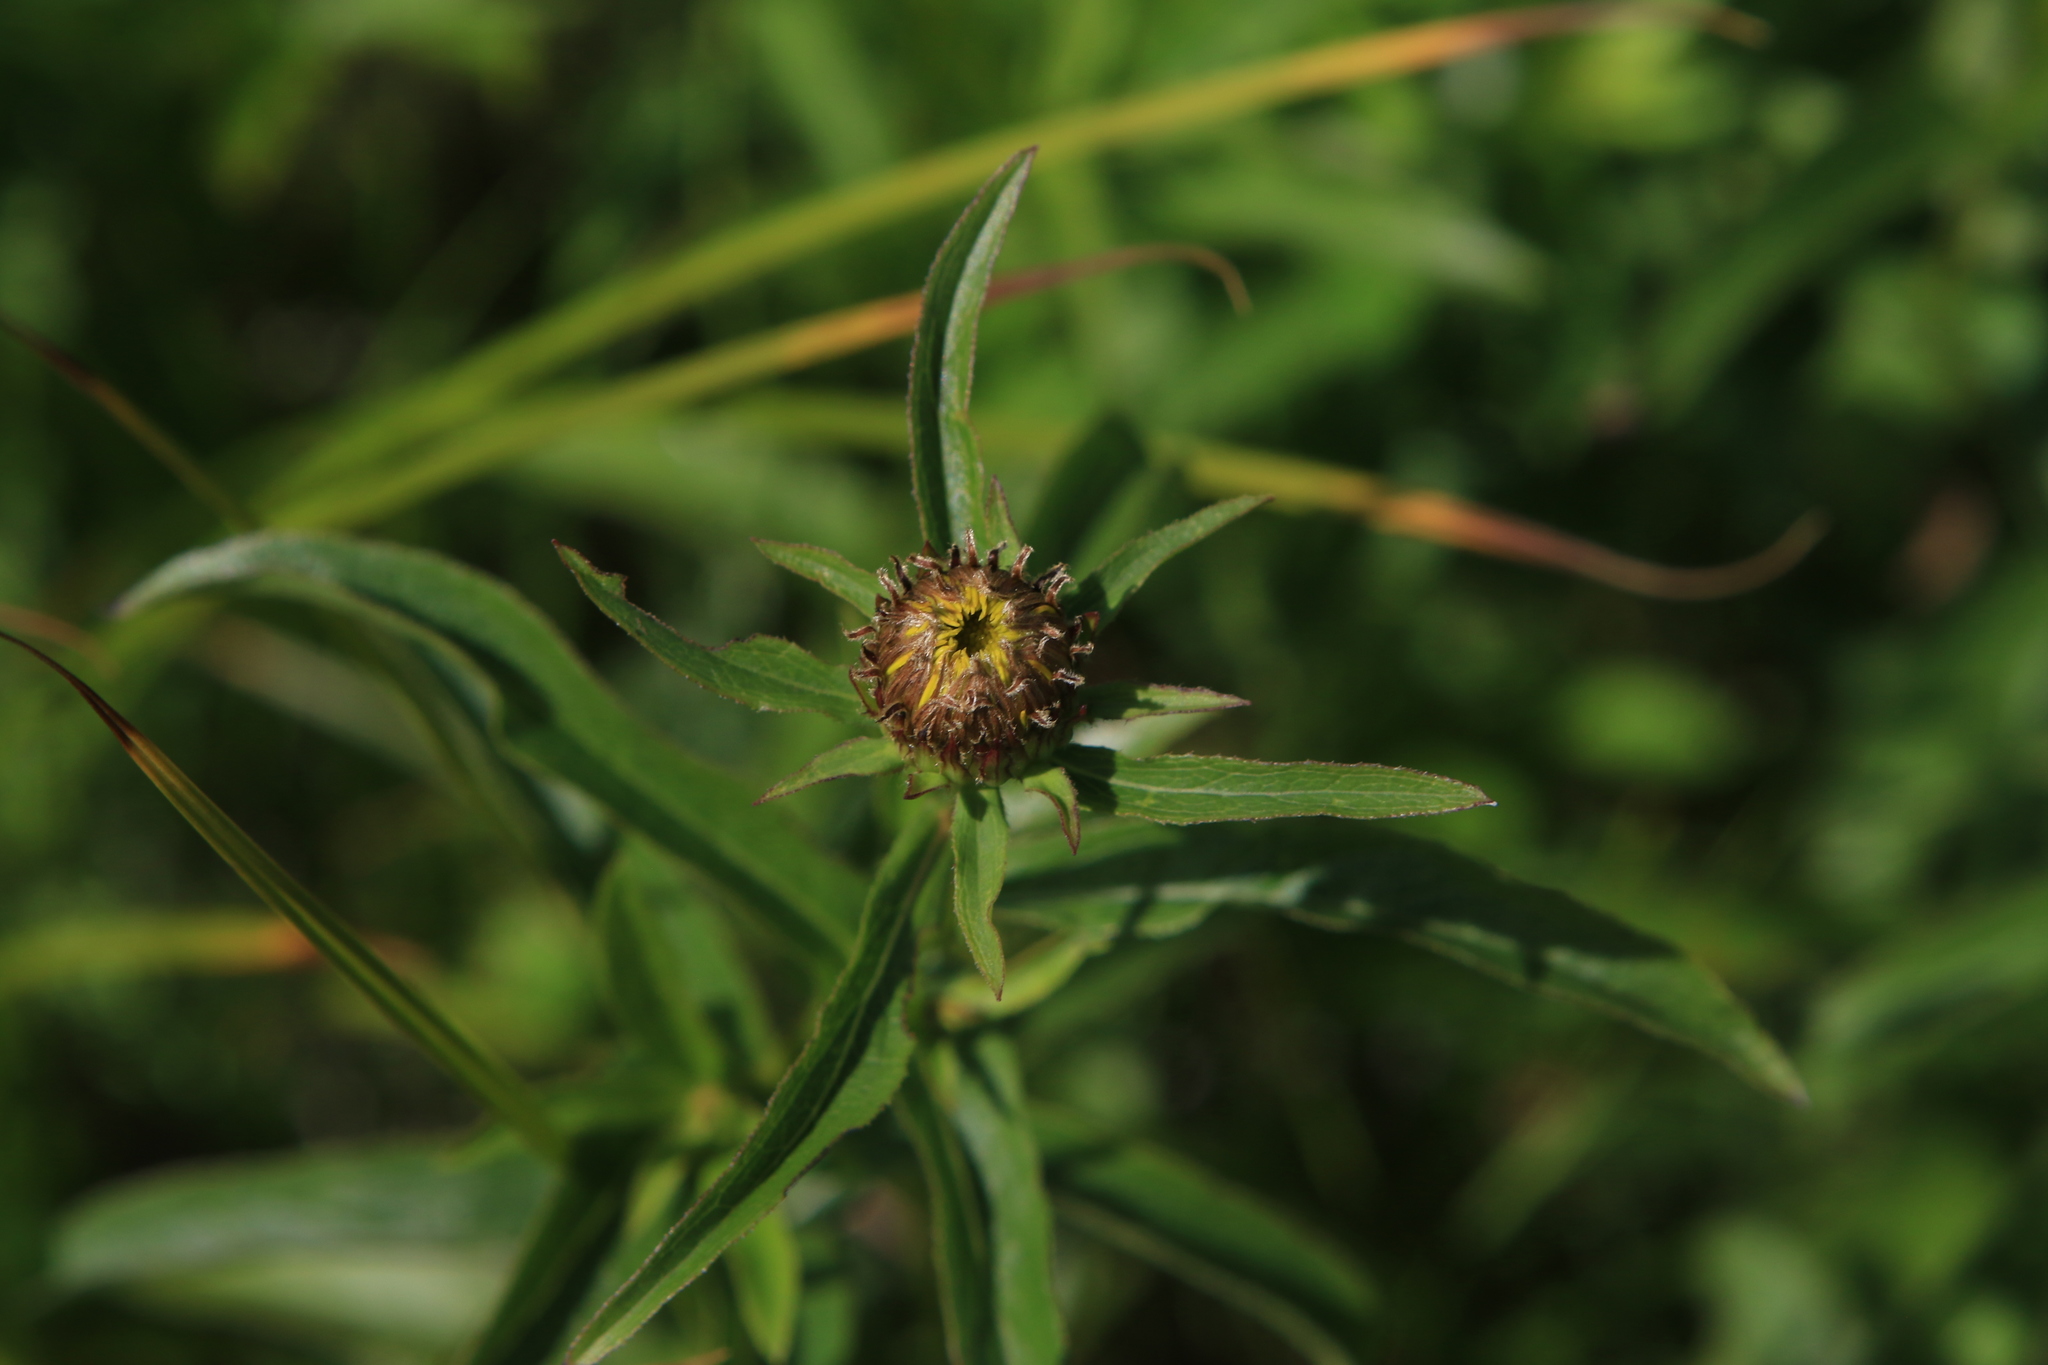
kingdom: Plantae
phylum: Tracheophyta
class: Magnoliopsida
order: Asterales
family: Asteraceae
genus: Pentanema
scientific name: Pentanema salicinum
